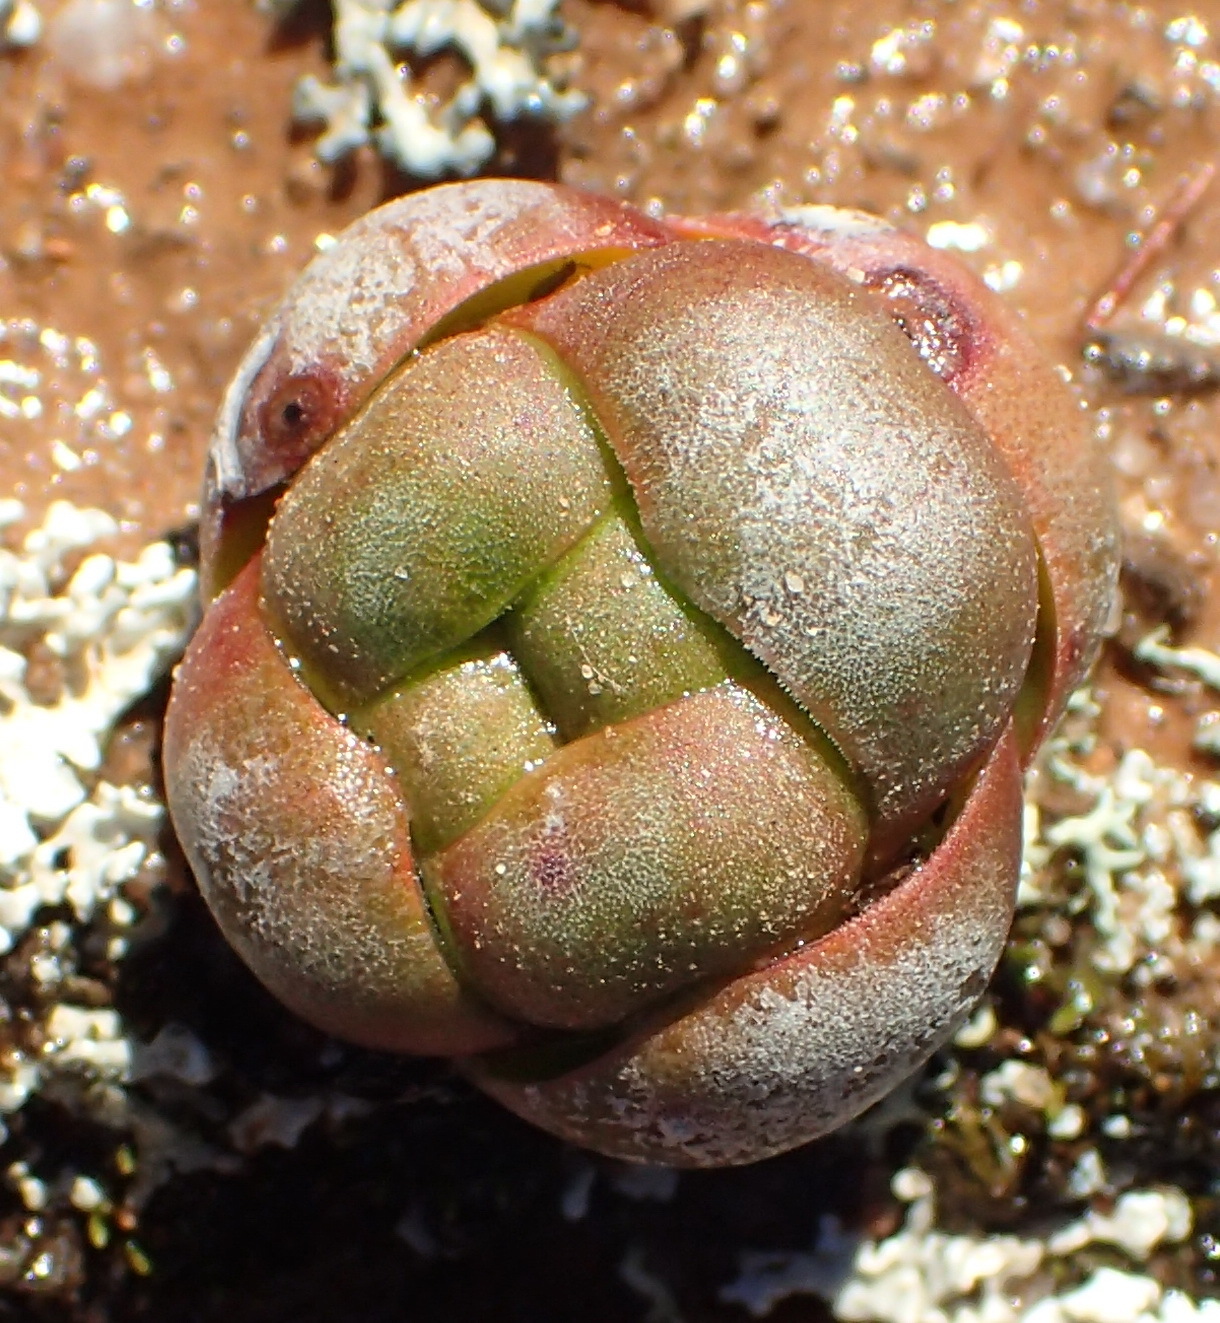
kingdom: Plantae
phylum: Tracheophyta
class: Magnoliopsida
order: Saxifragales
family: Crassulaceae
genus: Crassula
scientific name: Crassula columnaris
